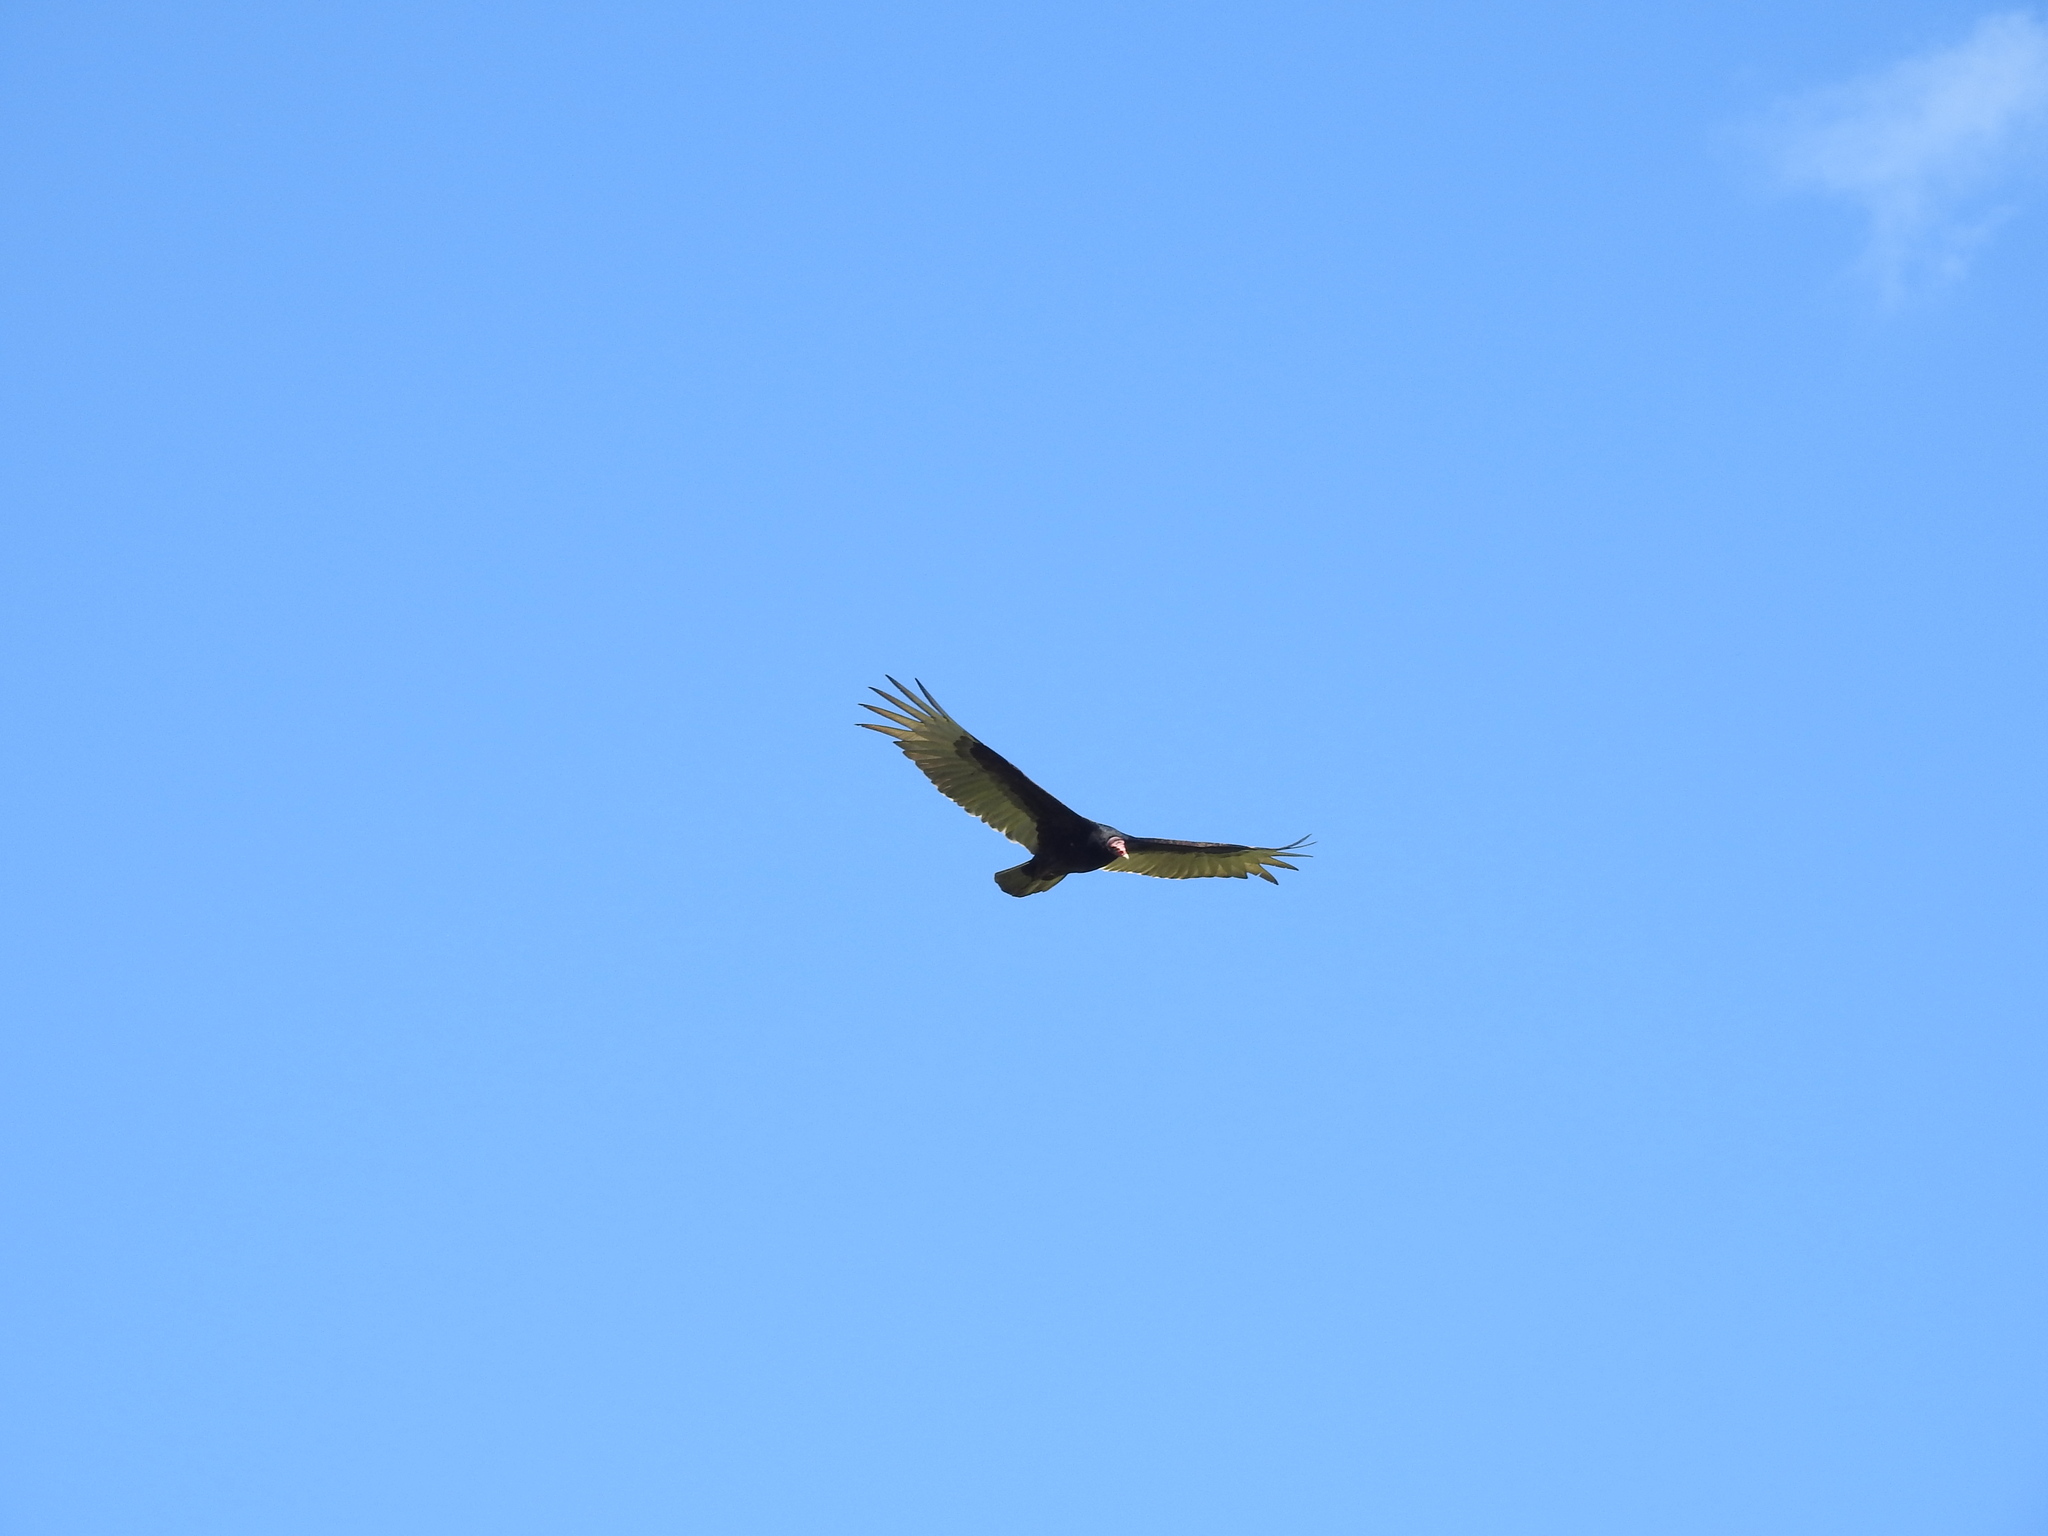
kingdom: Animalia
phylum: Chordata
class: Aves
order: Accipitriformes
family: Cathartidae
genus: Cathartes
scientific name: Cathartes aura
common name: Turkey vulture
